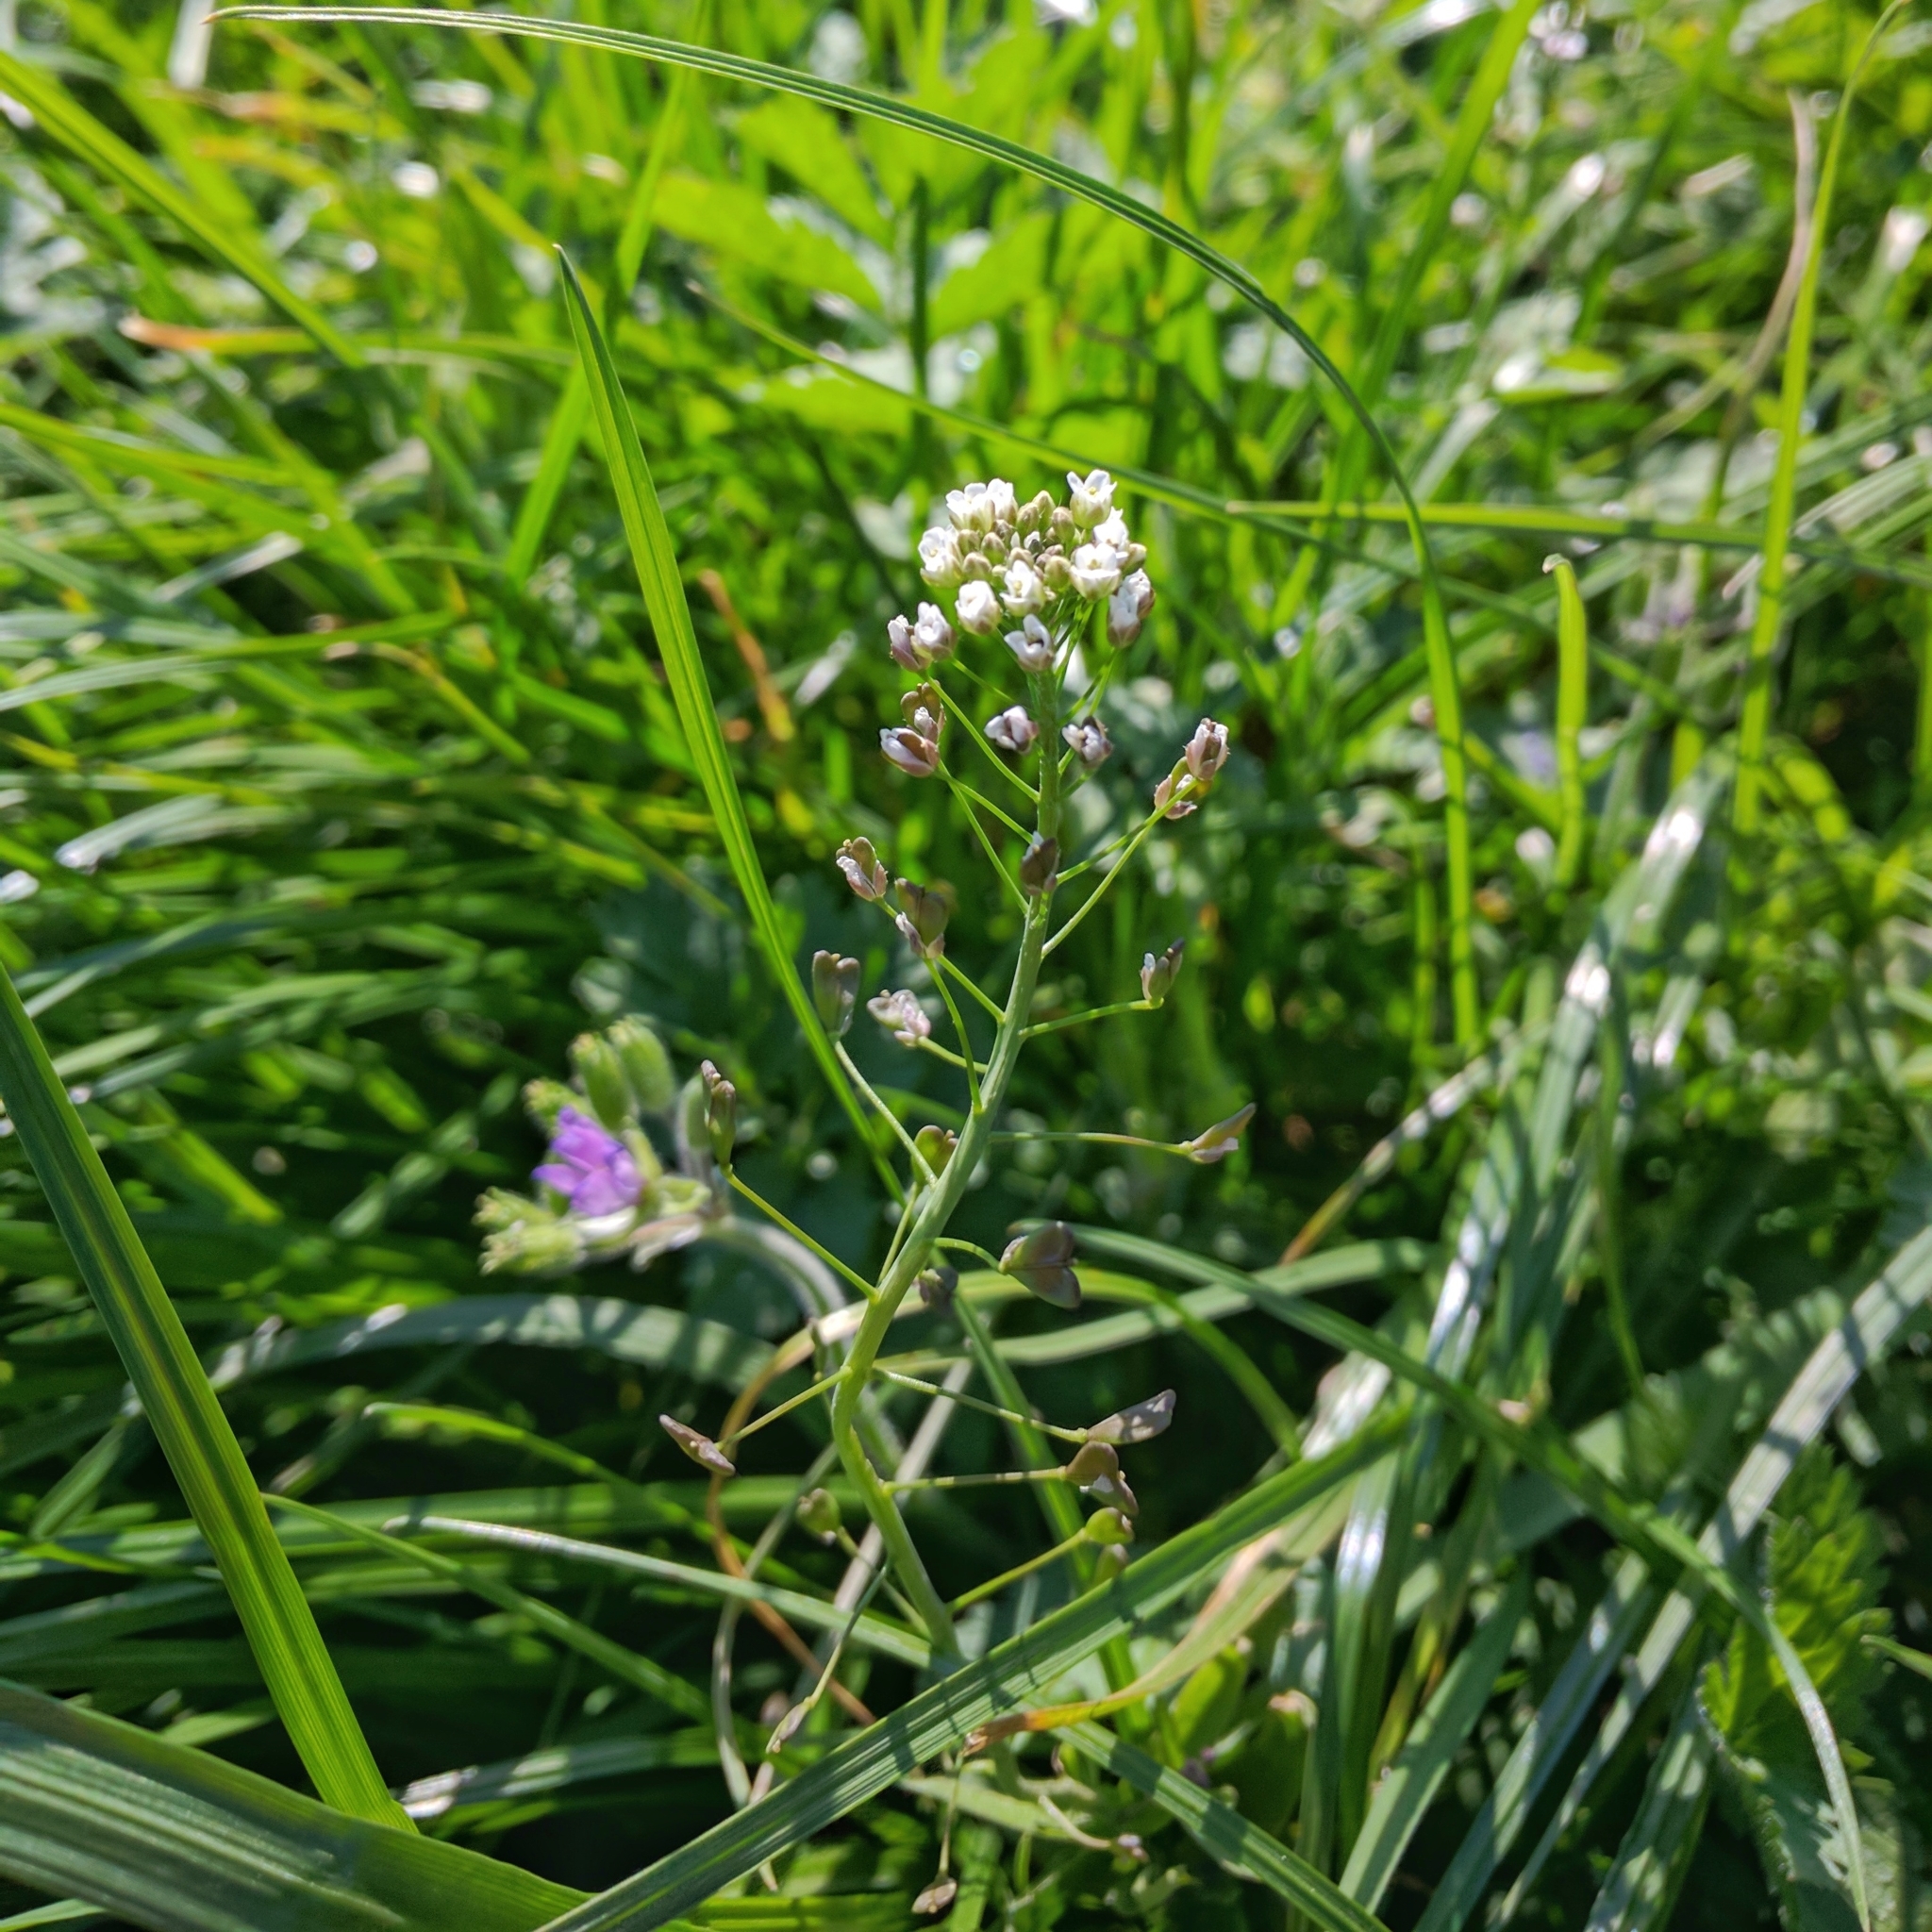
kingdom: Plantae
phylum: Tracheophyta
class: Magnoliopsida
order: Brassicales
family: Brassicaceae
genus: Capsella
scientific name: Capsella bursa-pastoris
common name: Shepherd's purse
